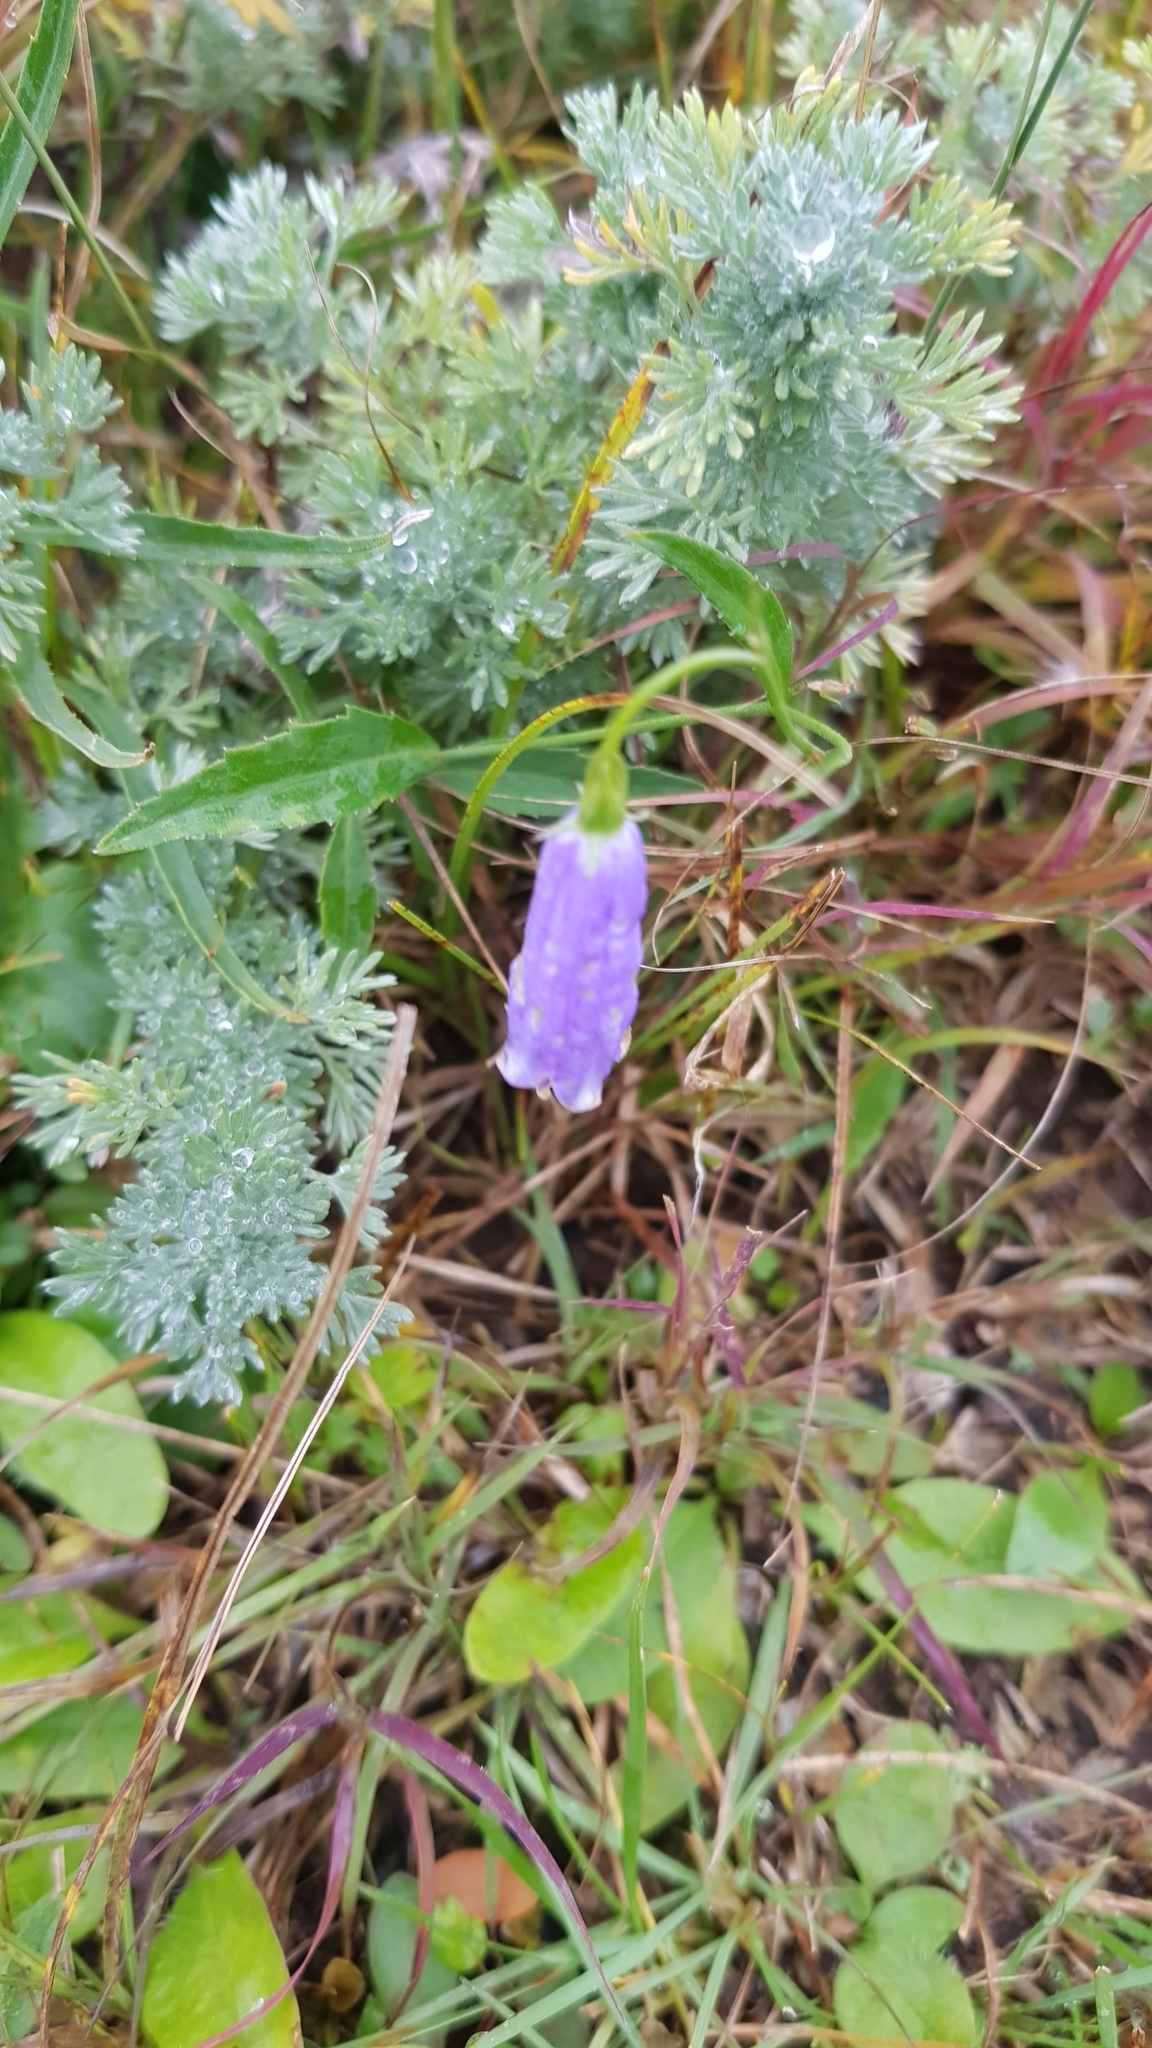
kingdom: Plantae
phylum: Tracheophyta
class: Magnoliopsida
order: Asterales
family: Campanulaceae
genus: Adenophora
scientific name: Adenophora stenanthina
